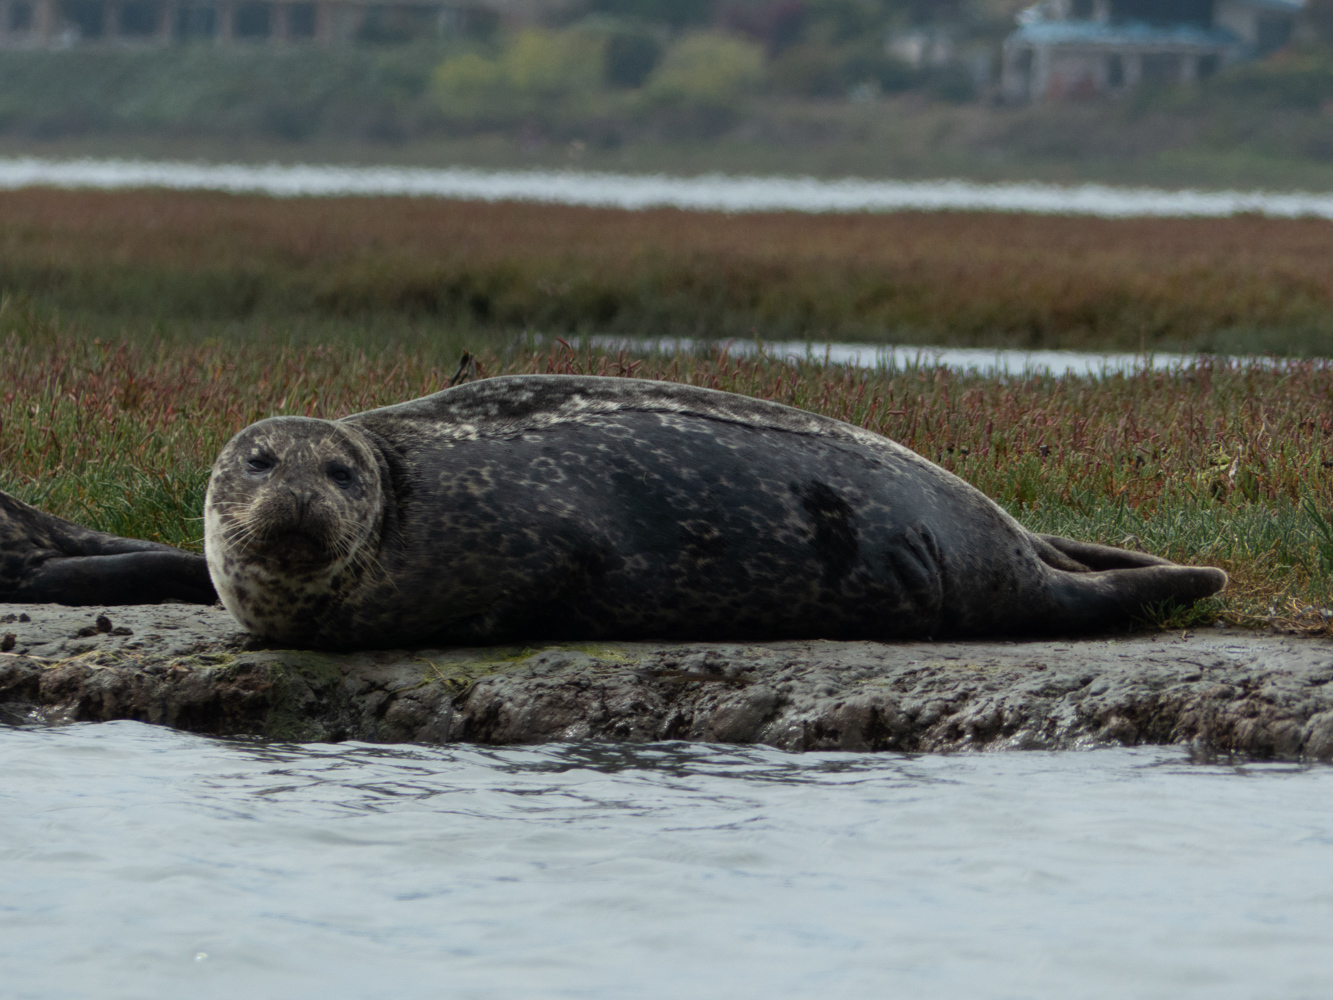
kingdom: Animalia
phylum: Chordata
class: Mammalia
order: Carnivora
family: Phocidae
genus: Phoca
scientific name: Phoca vitulina
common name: Harbor seal
